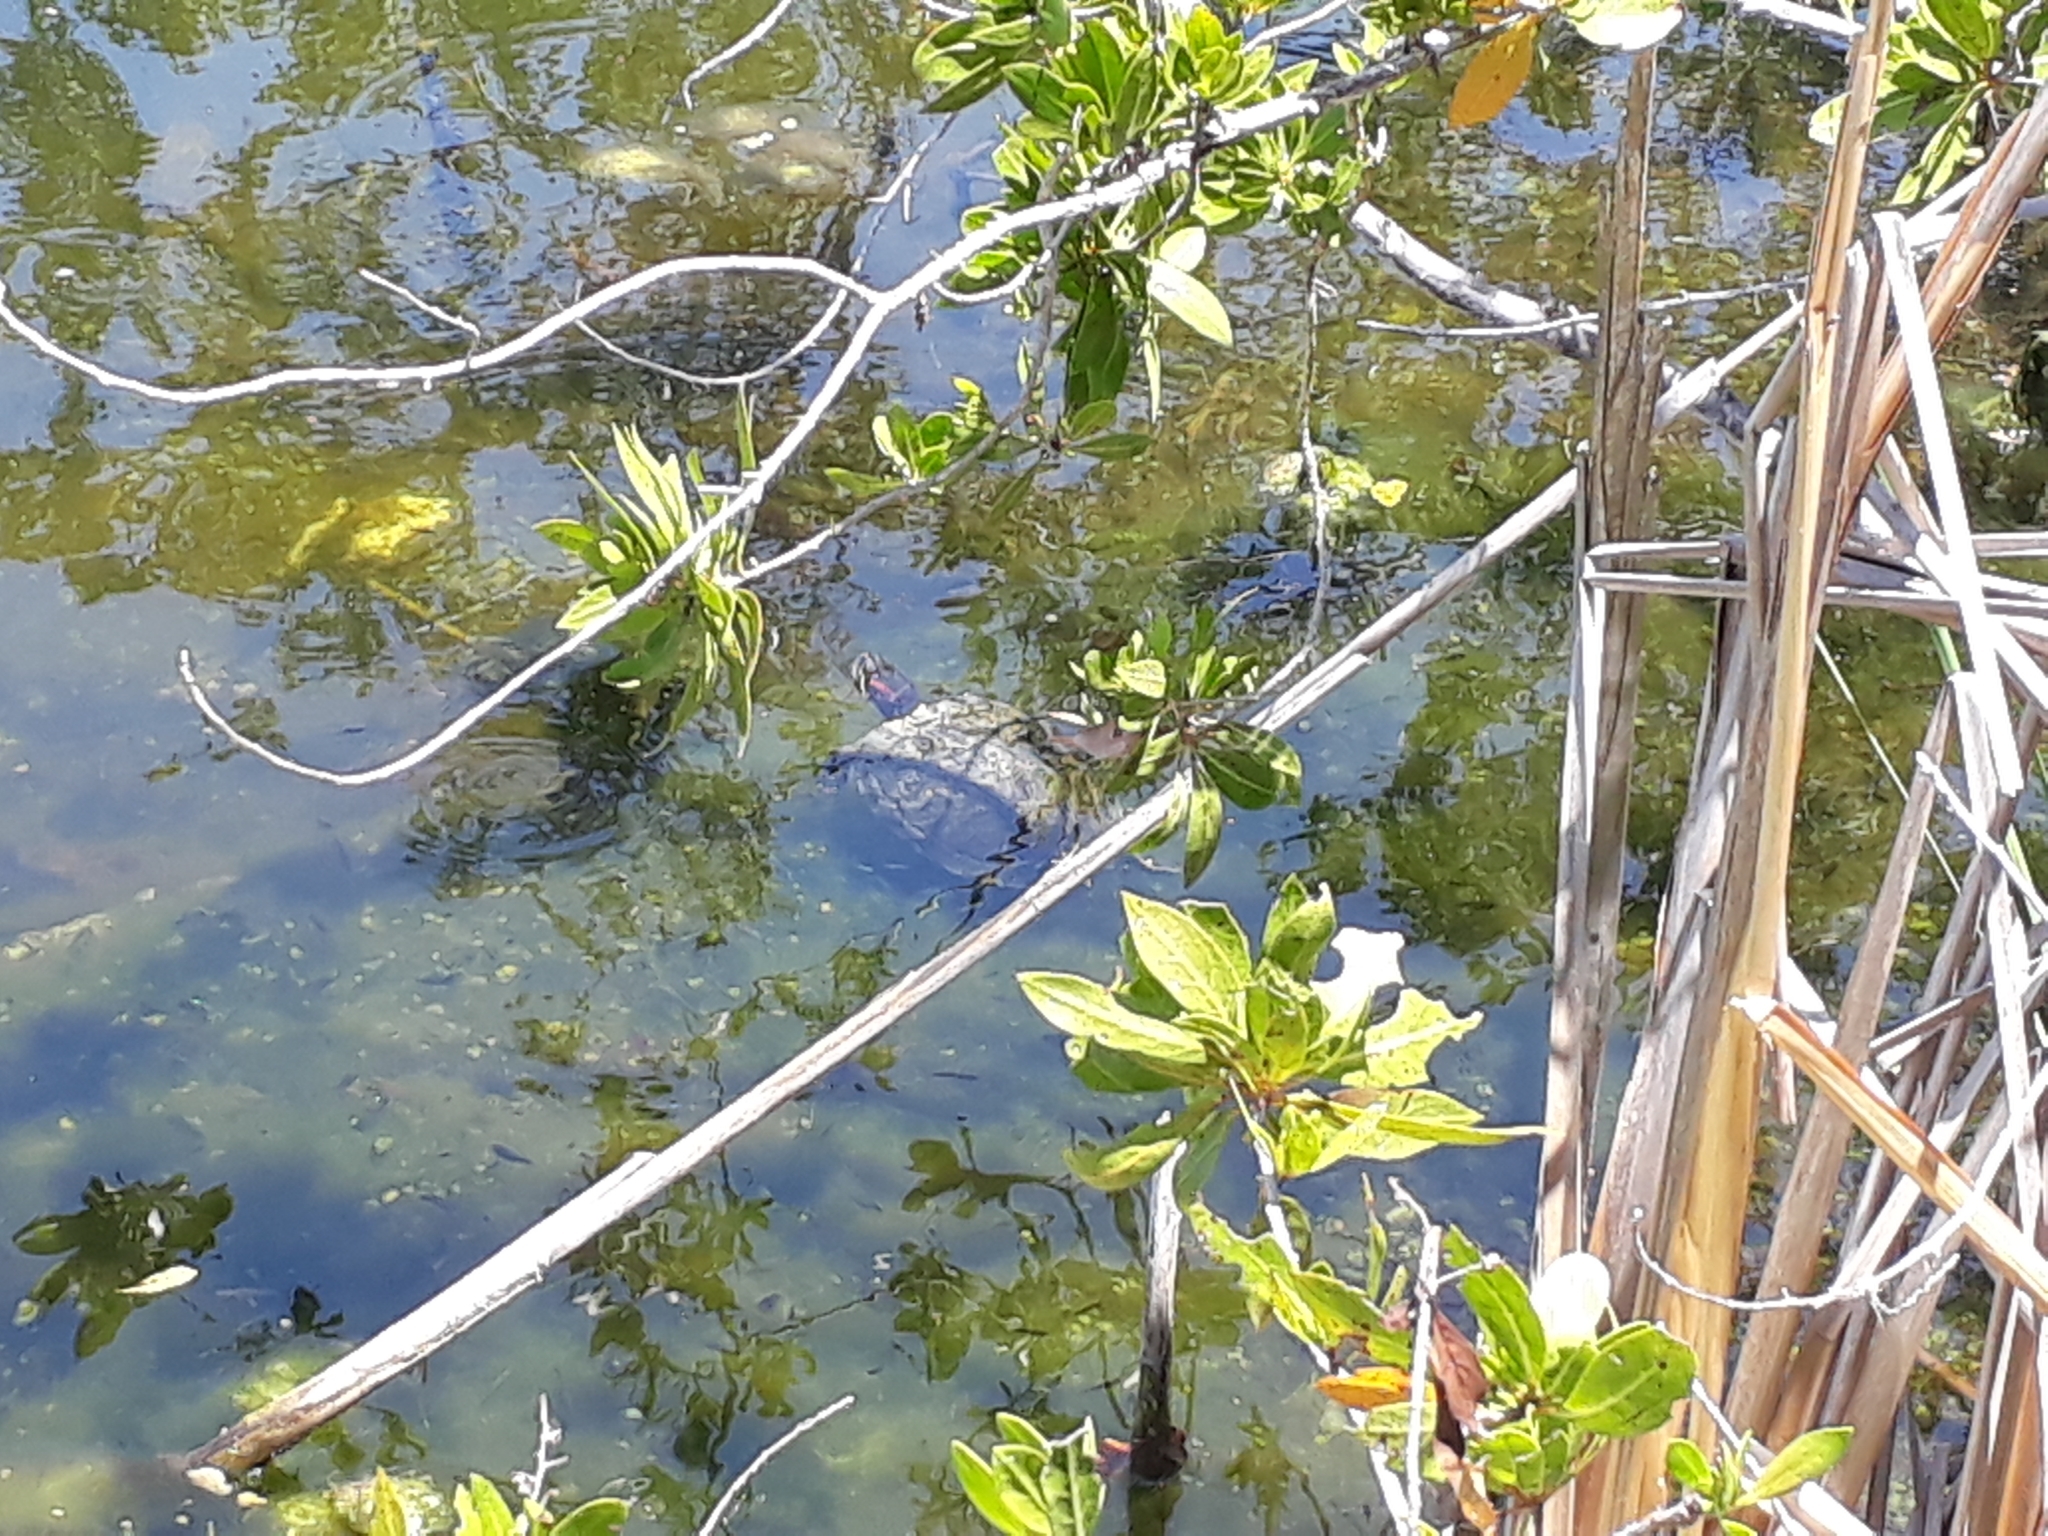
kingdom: Animalia
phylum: Chordata
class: Testudines
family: Emydidae
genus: Trachemys
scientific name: Trachemys scripta
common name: Slider
